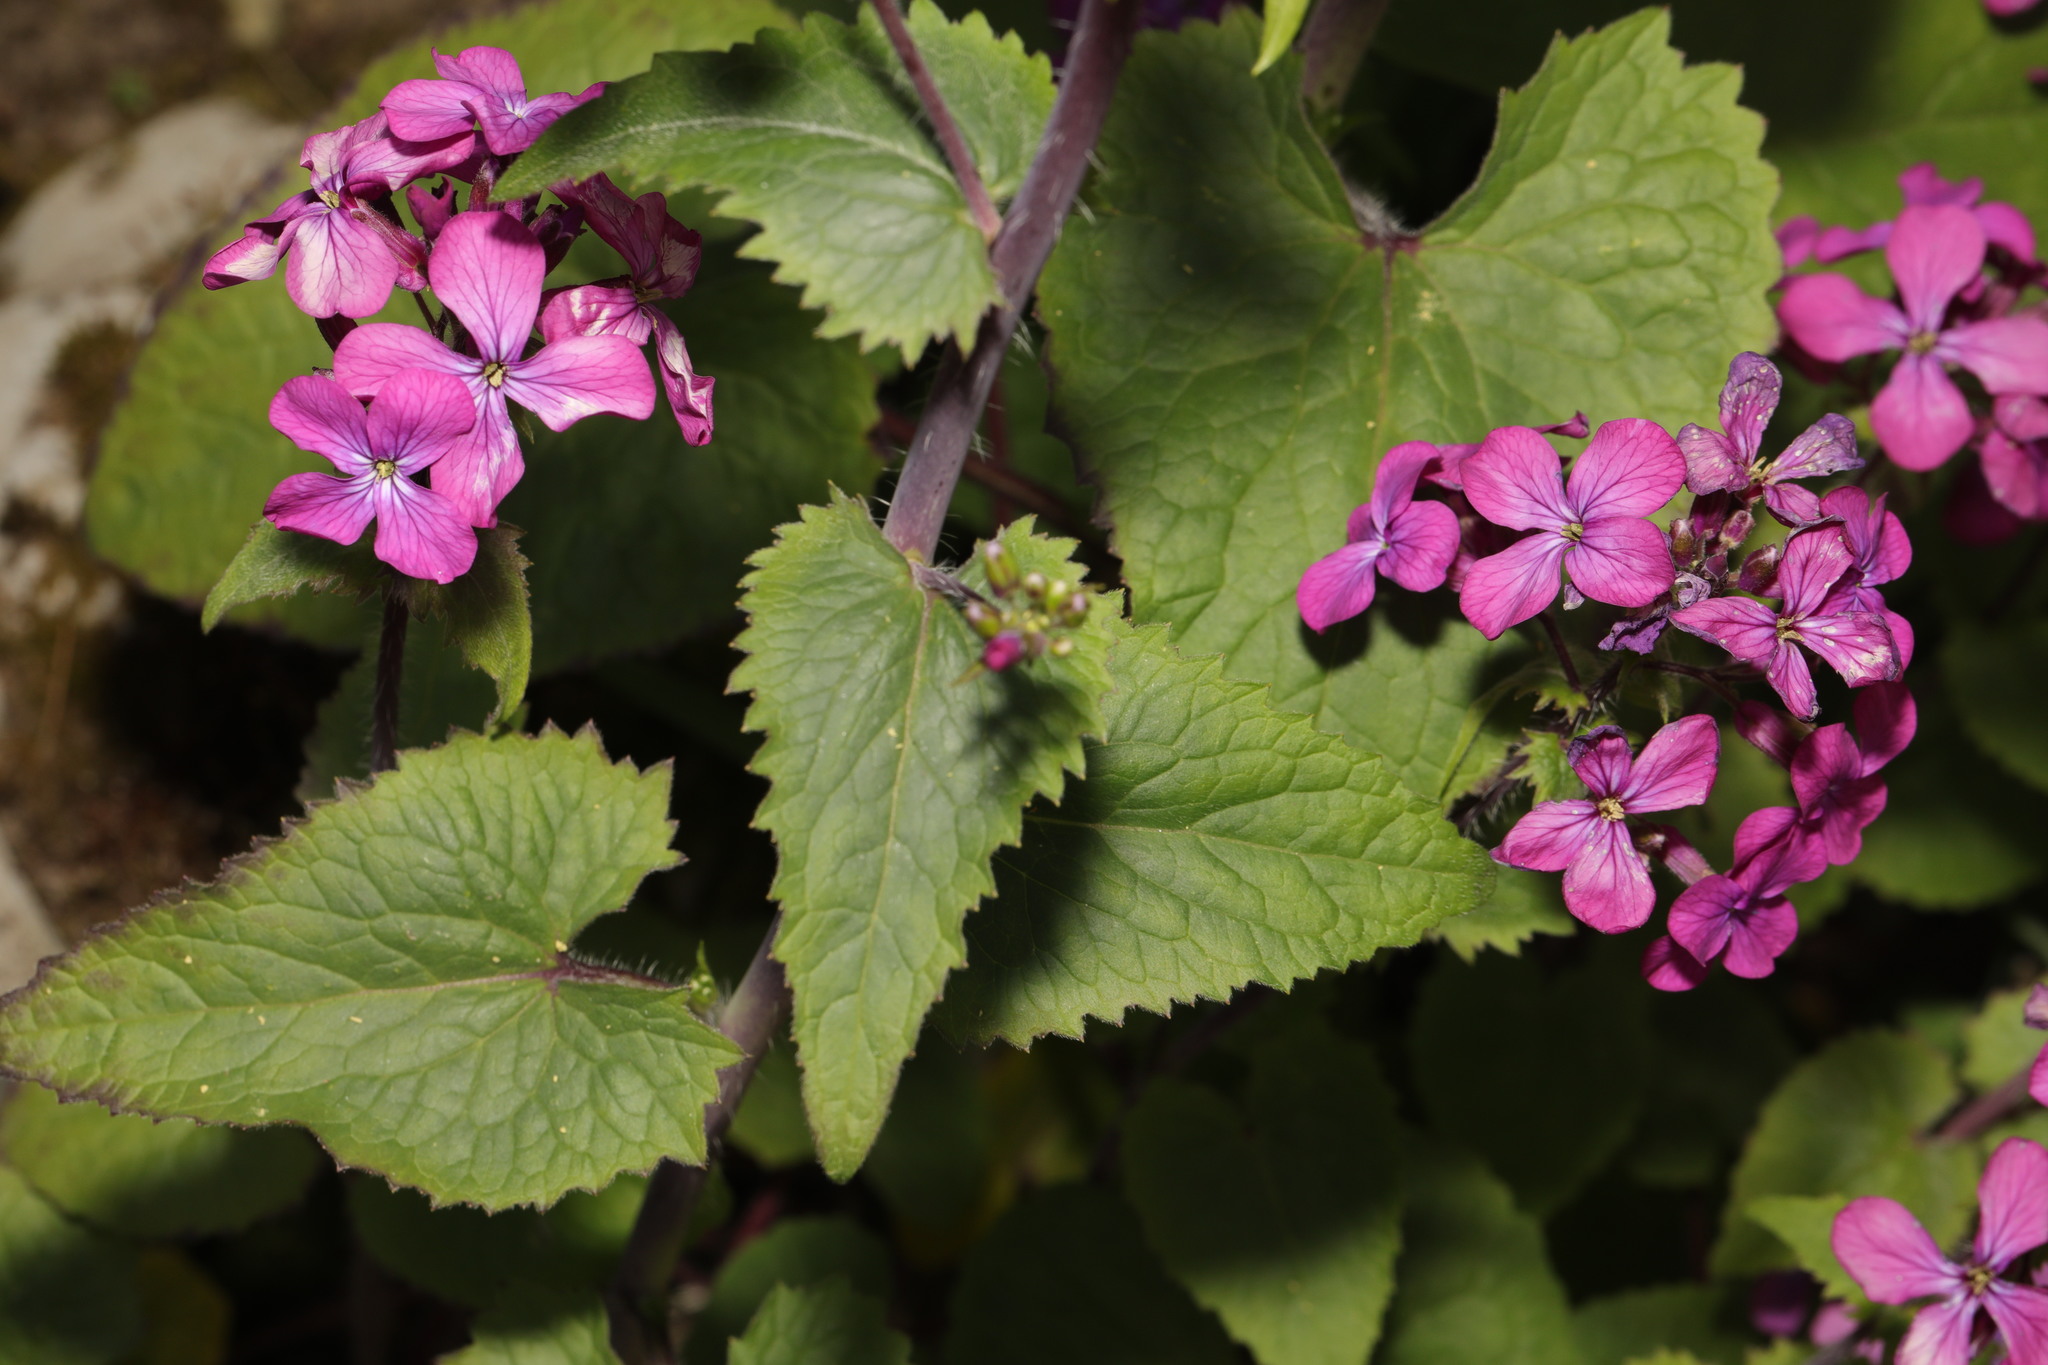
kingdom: Plantae
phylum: Tracheophyta
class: Magnoliopsida
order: Brassicales
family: Brassicaceae
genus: Lunaria
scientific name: Lunaria annua
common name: Honesty
